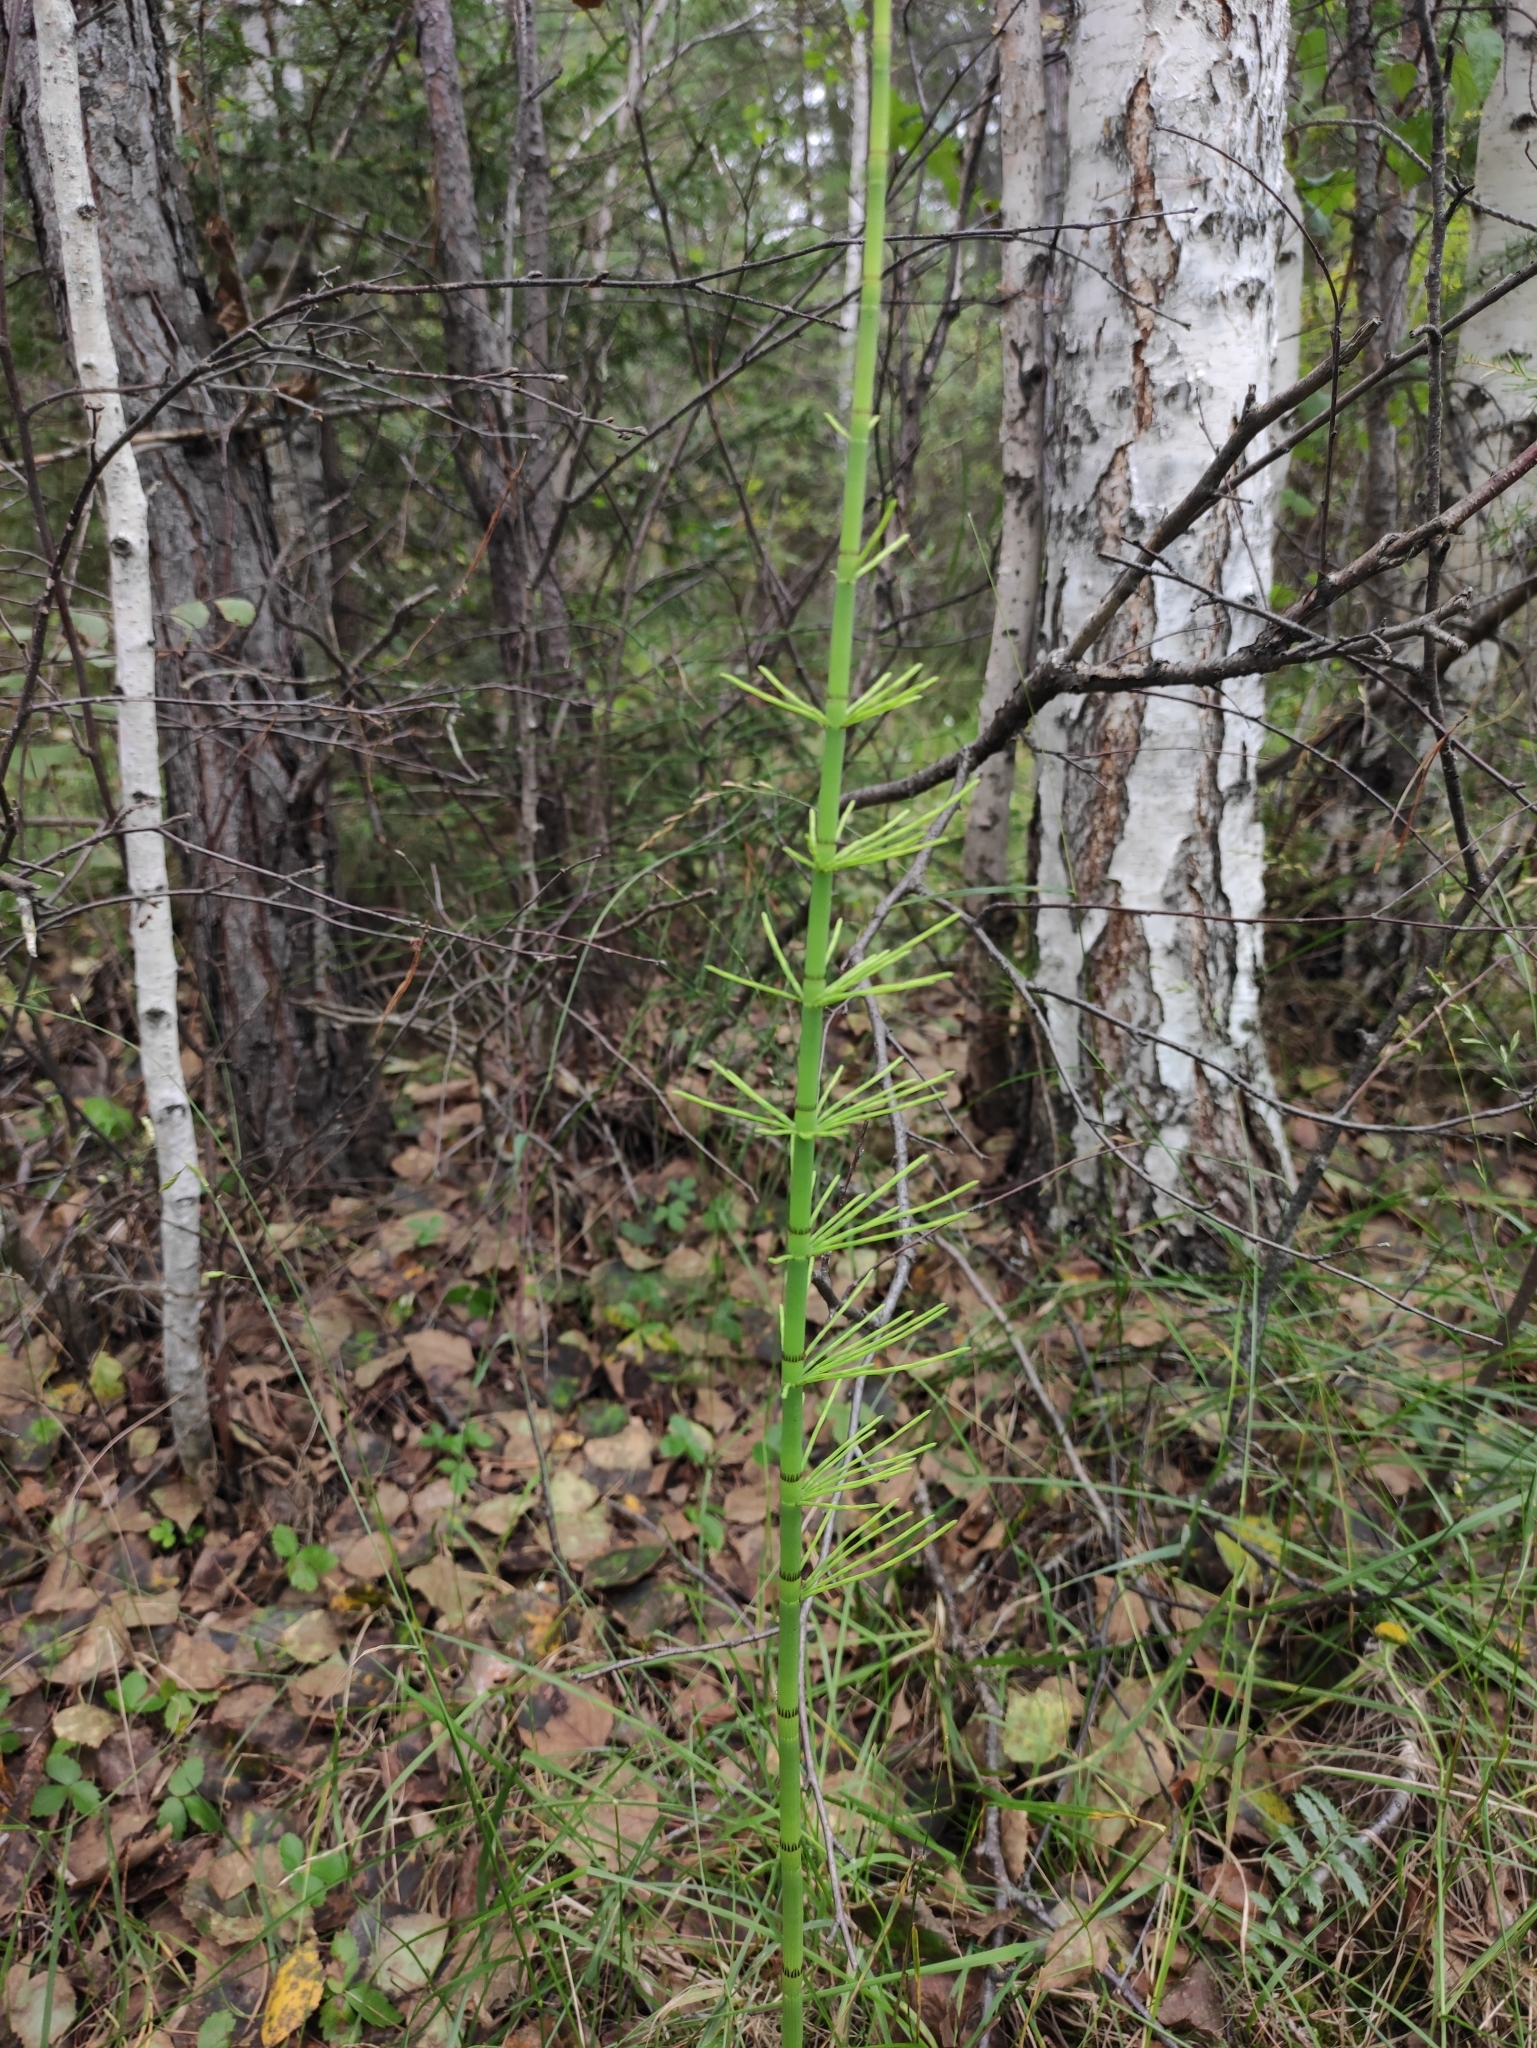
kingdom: Plantae
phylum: Tracheophyta
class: Polypodiopsida
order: Equisetales
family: Equisetaceae
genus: Equisetum
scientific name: Equisetum fluviatile
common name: Water horsetail
